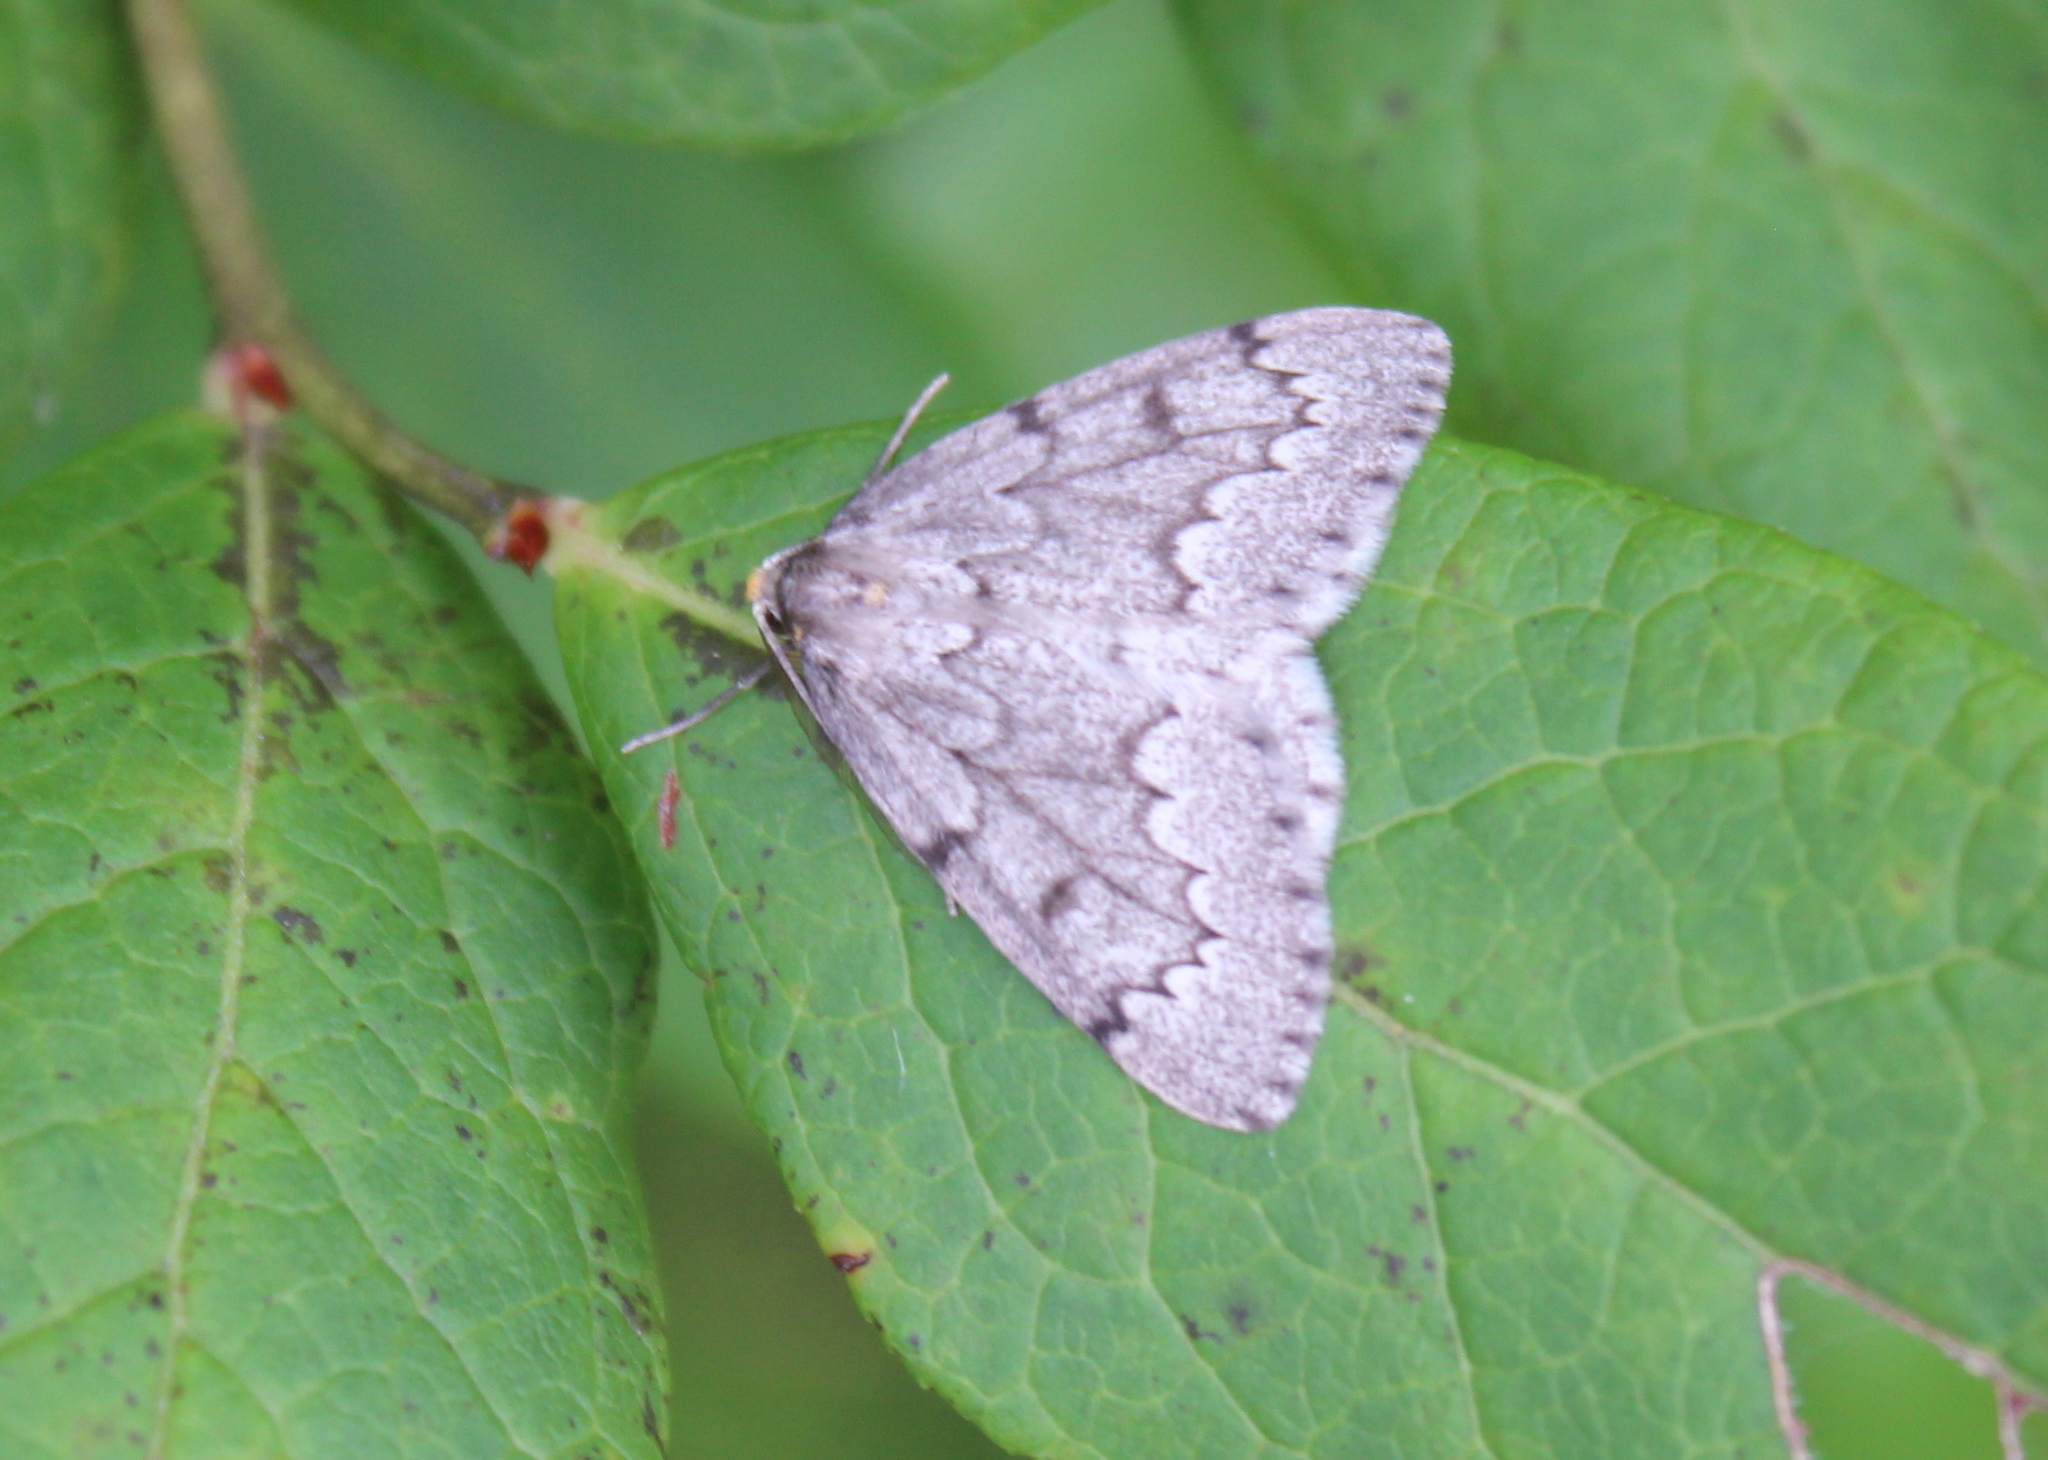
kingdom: Animalia
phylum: Arthropoda
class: Insecta
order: Lepidoptera
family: Geometridae
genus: Nepytia
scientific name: Nepytia canosaria
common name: False hemlock looper
